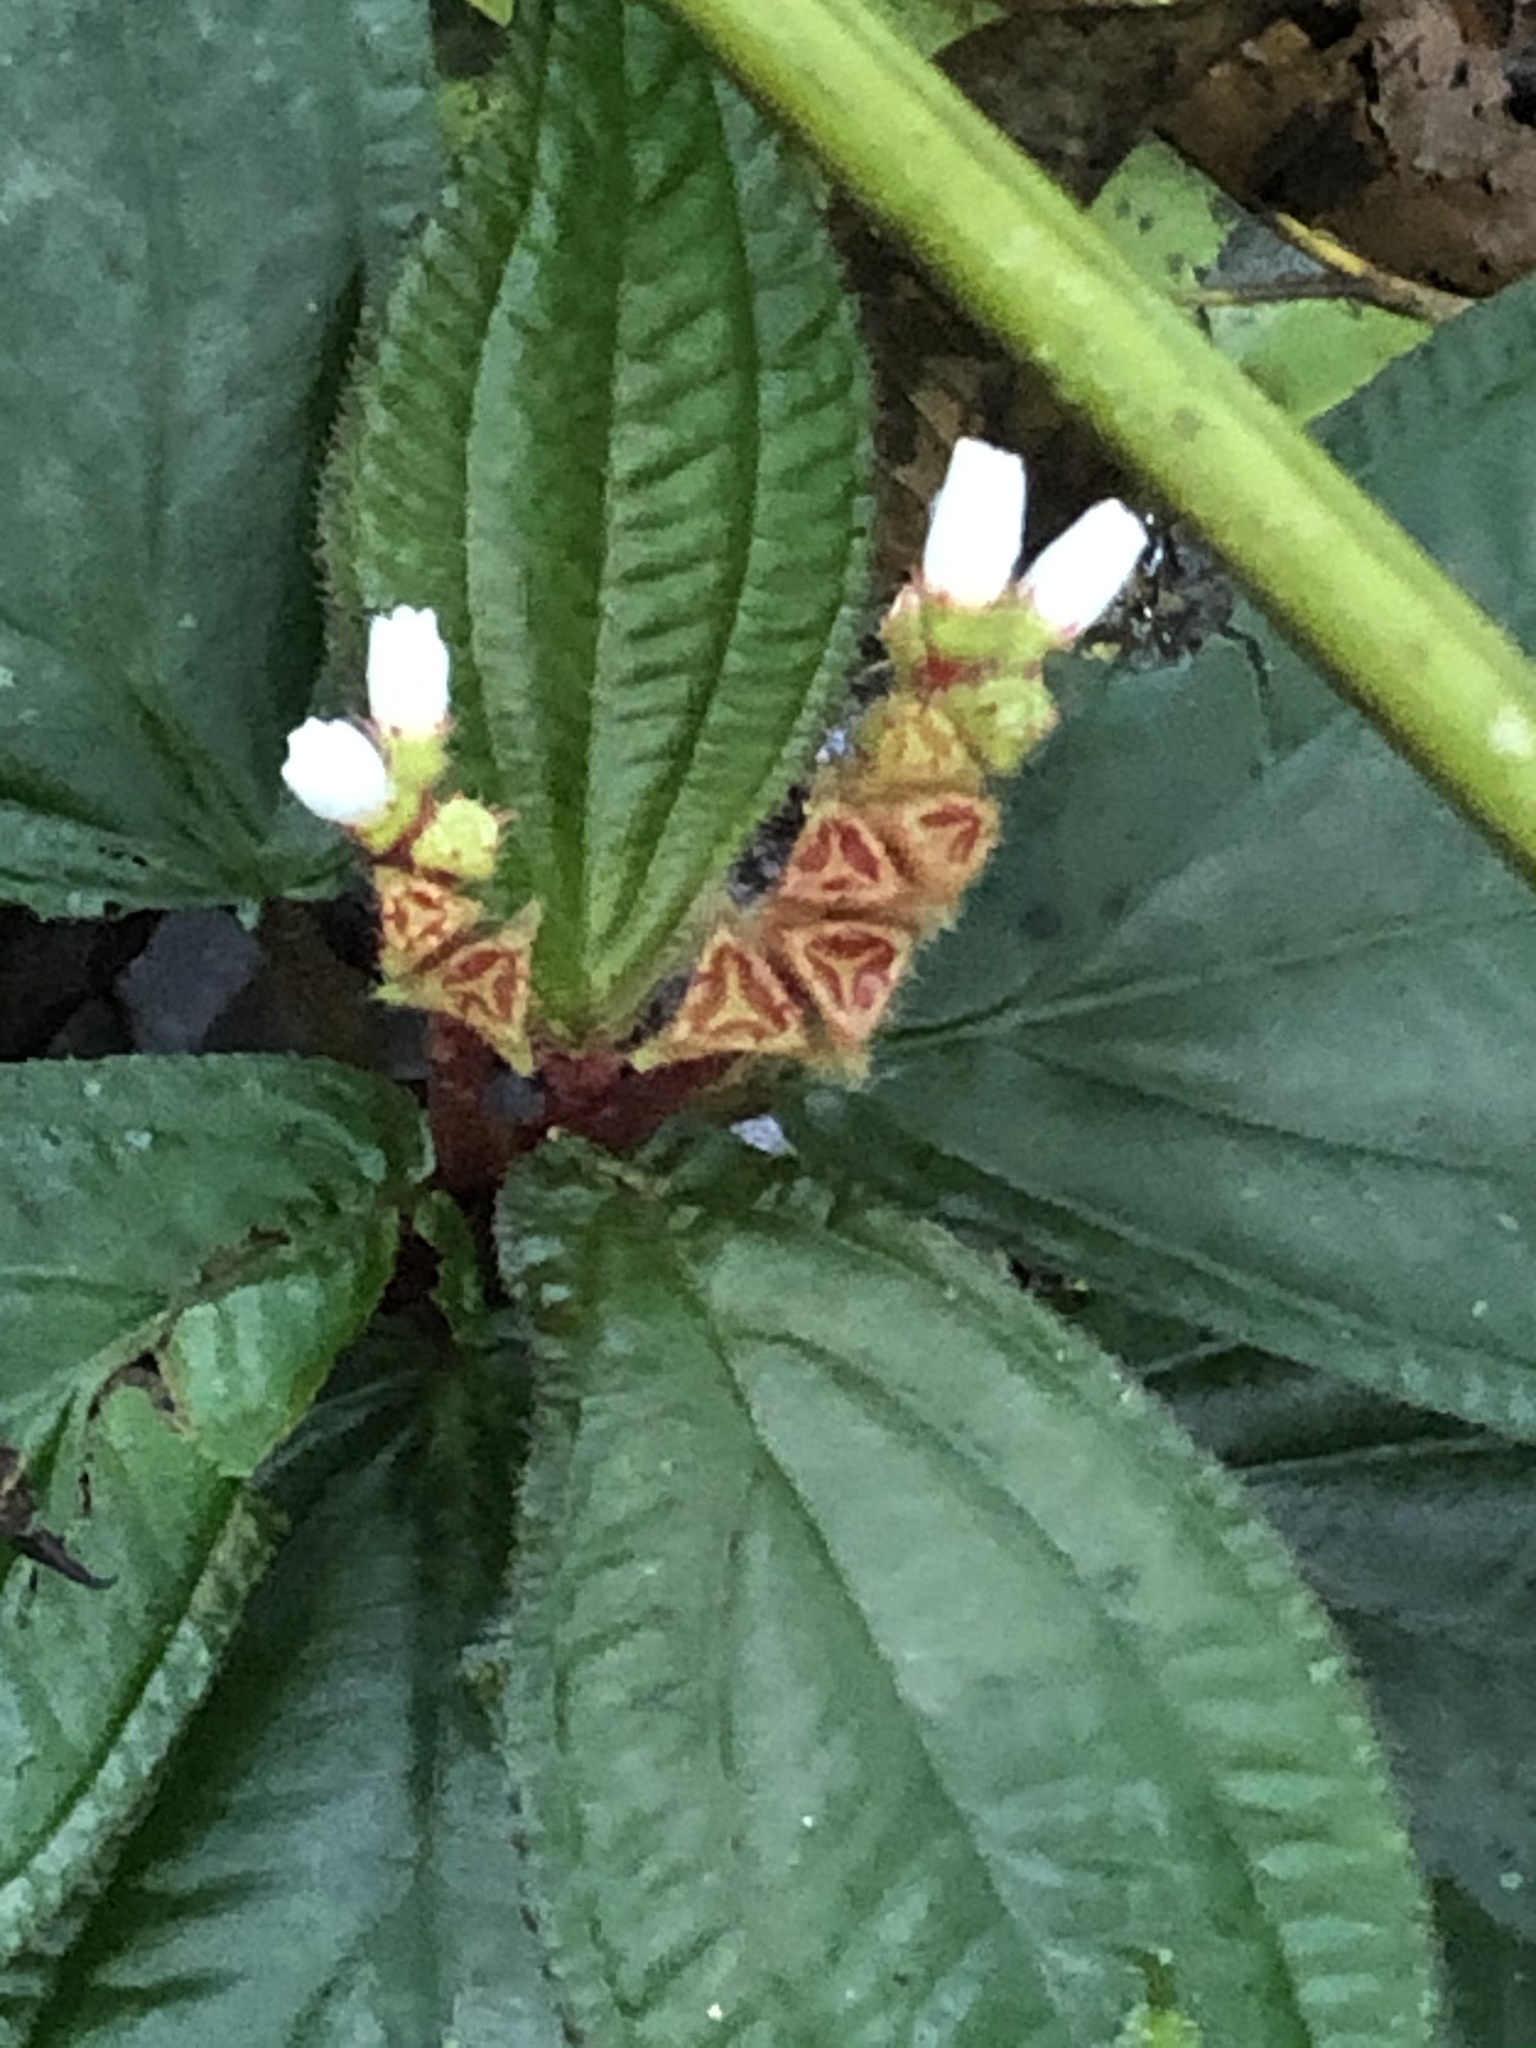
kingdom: Plantae
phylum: Tracheophyta
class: Magnoliopsida
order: Myrtales
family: Melastomataceae
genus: Triolena
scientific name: Triolena amazonica
